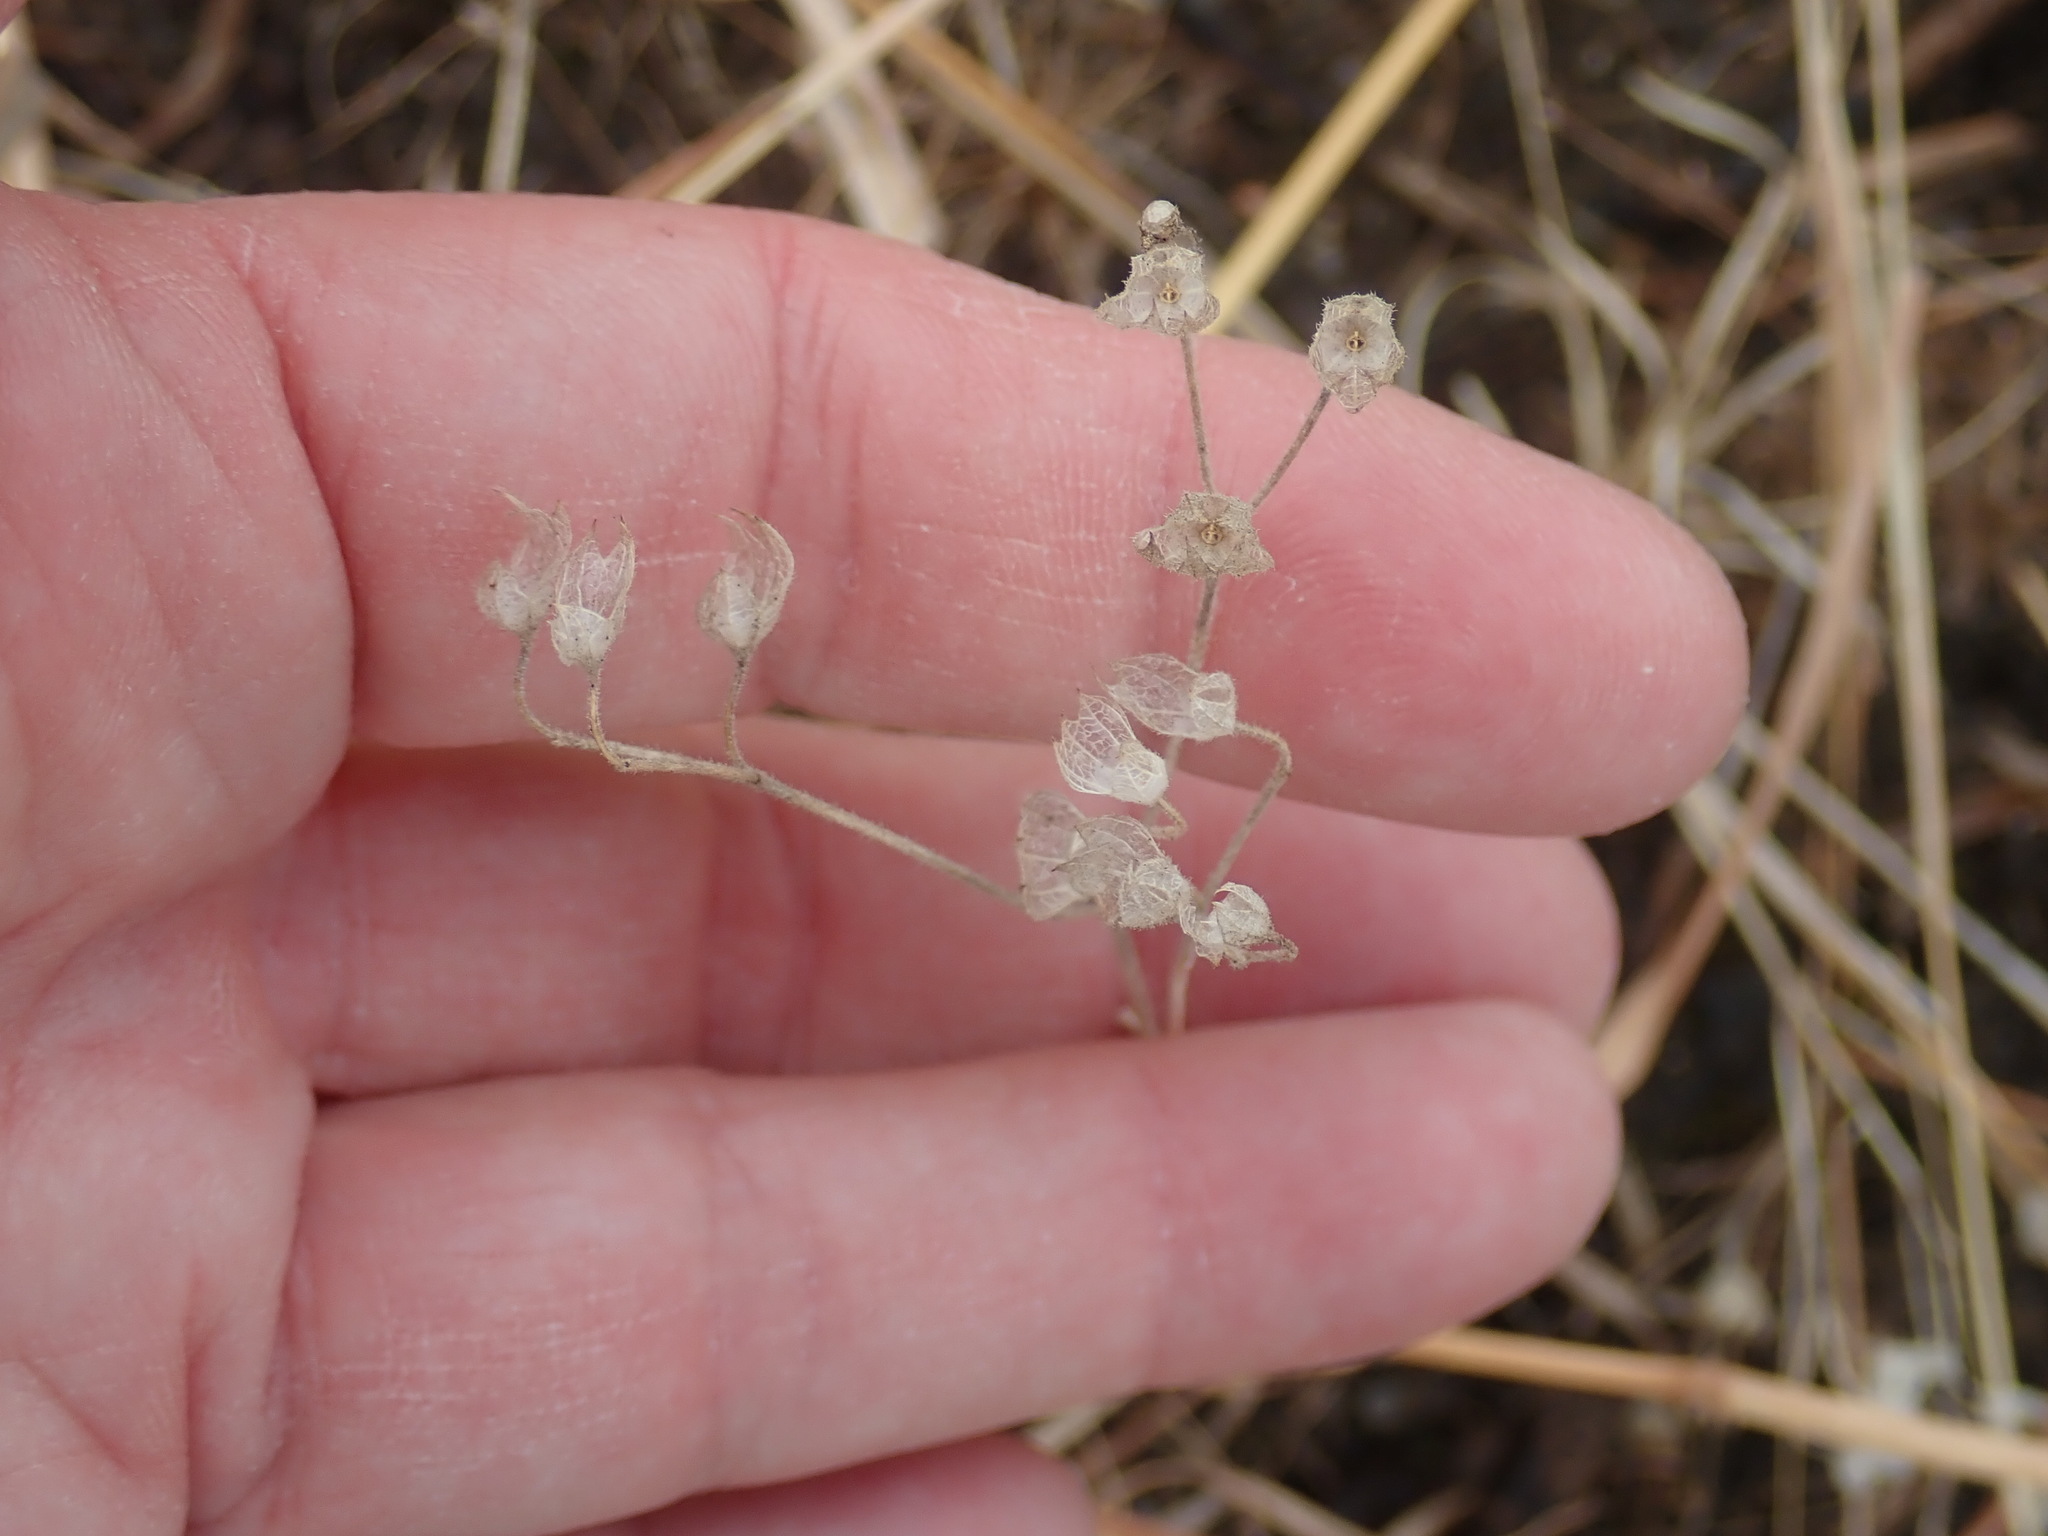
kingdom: Plantae
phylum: Tracheophyta
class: Magnoliopsida
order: Lamiales
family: Lamiaceae
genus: Trichostema
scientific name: Trichostema dichotomum
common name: Bastard pennyroyal
